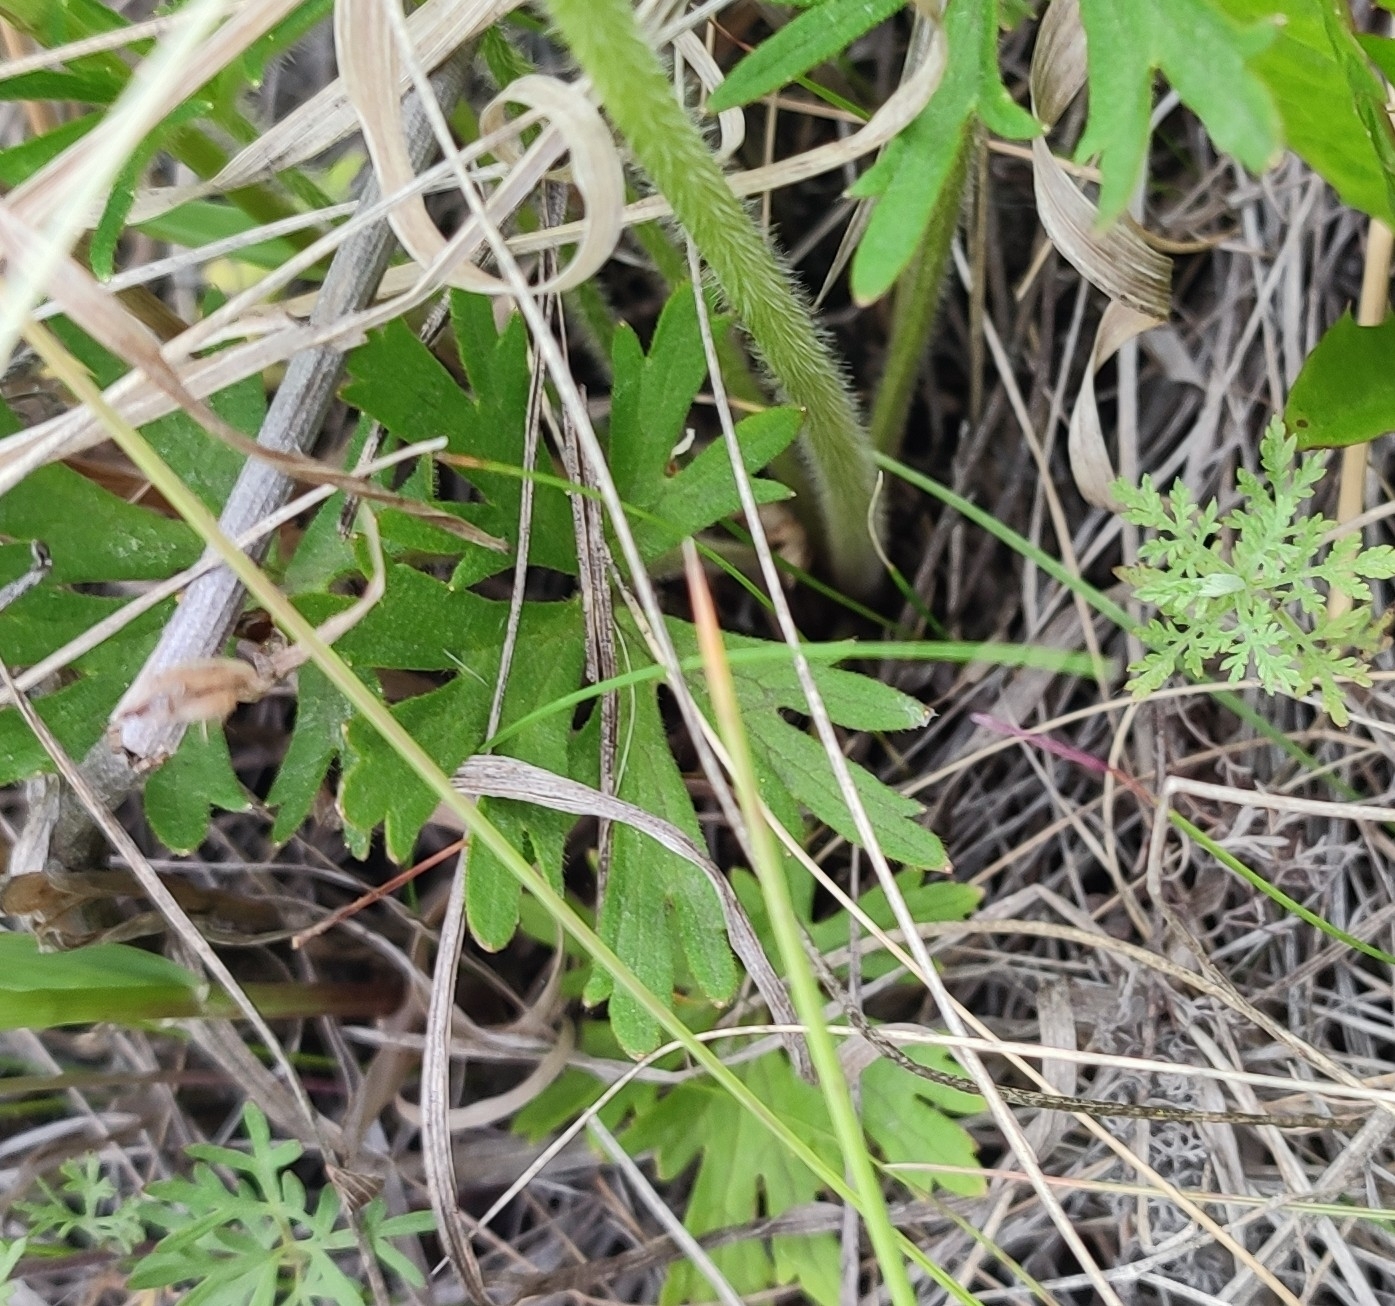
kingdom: Plantae
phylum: Tracheophyta
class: Magnoliopsida
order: Ranunculales
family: Ranunculaceae
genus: Ranunculus
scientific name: Ranunculus polyanthemos
